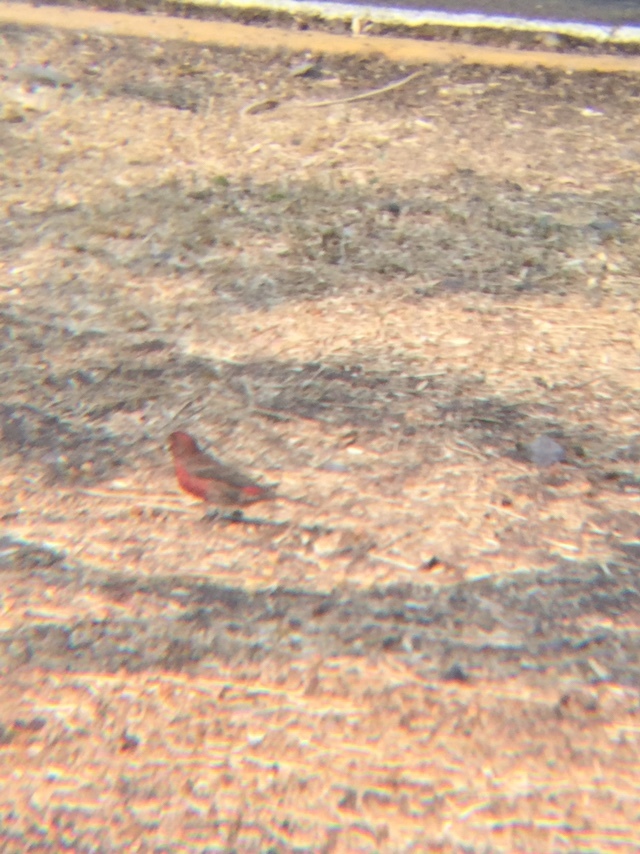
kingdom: Animalia
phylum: Chordata
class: Aves
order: Passeriformes
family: Fringillidae
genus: Haemorhous
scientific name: Haemorhous mexicanus
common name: House finch
